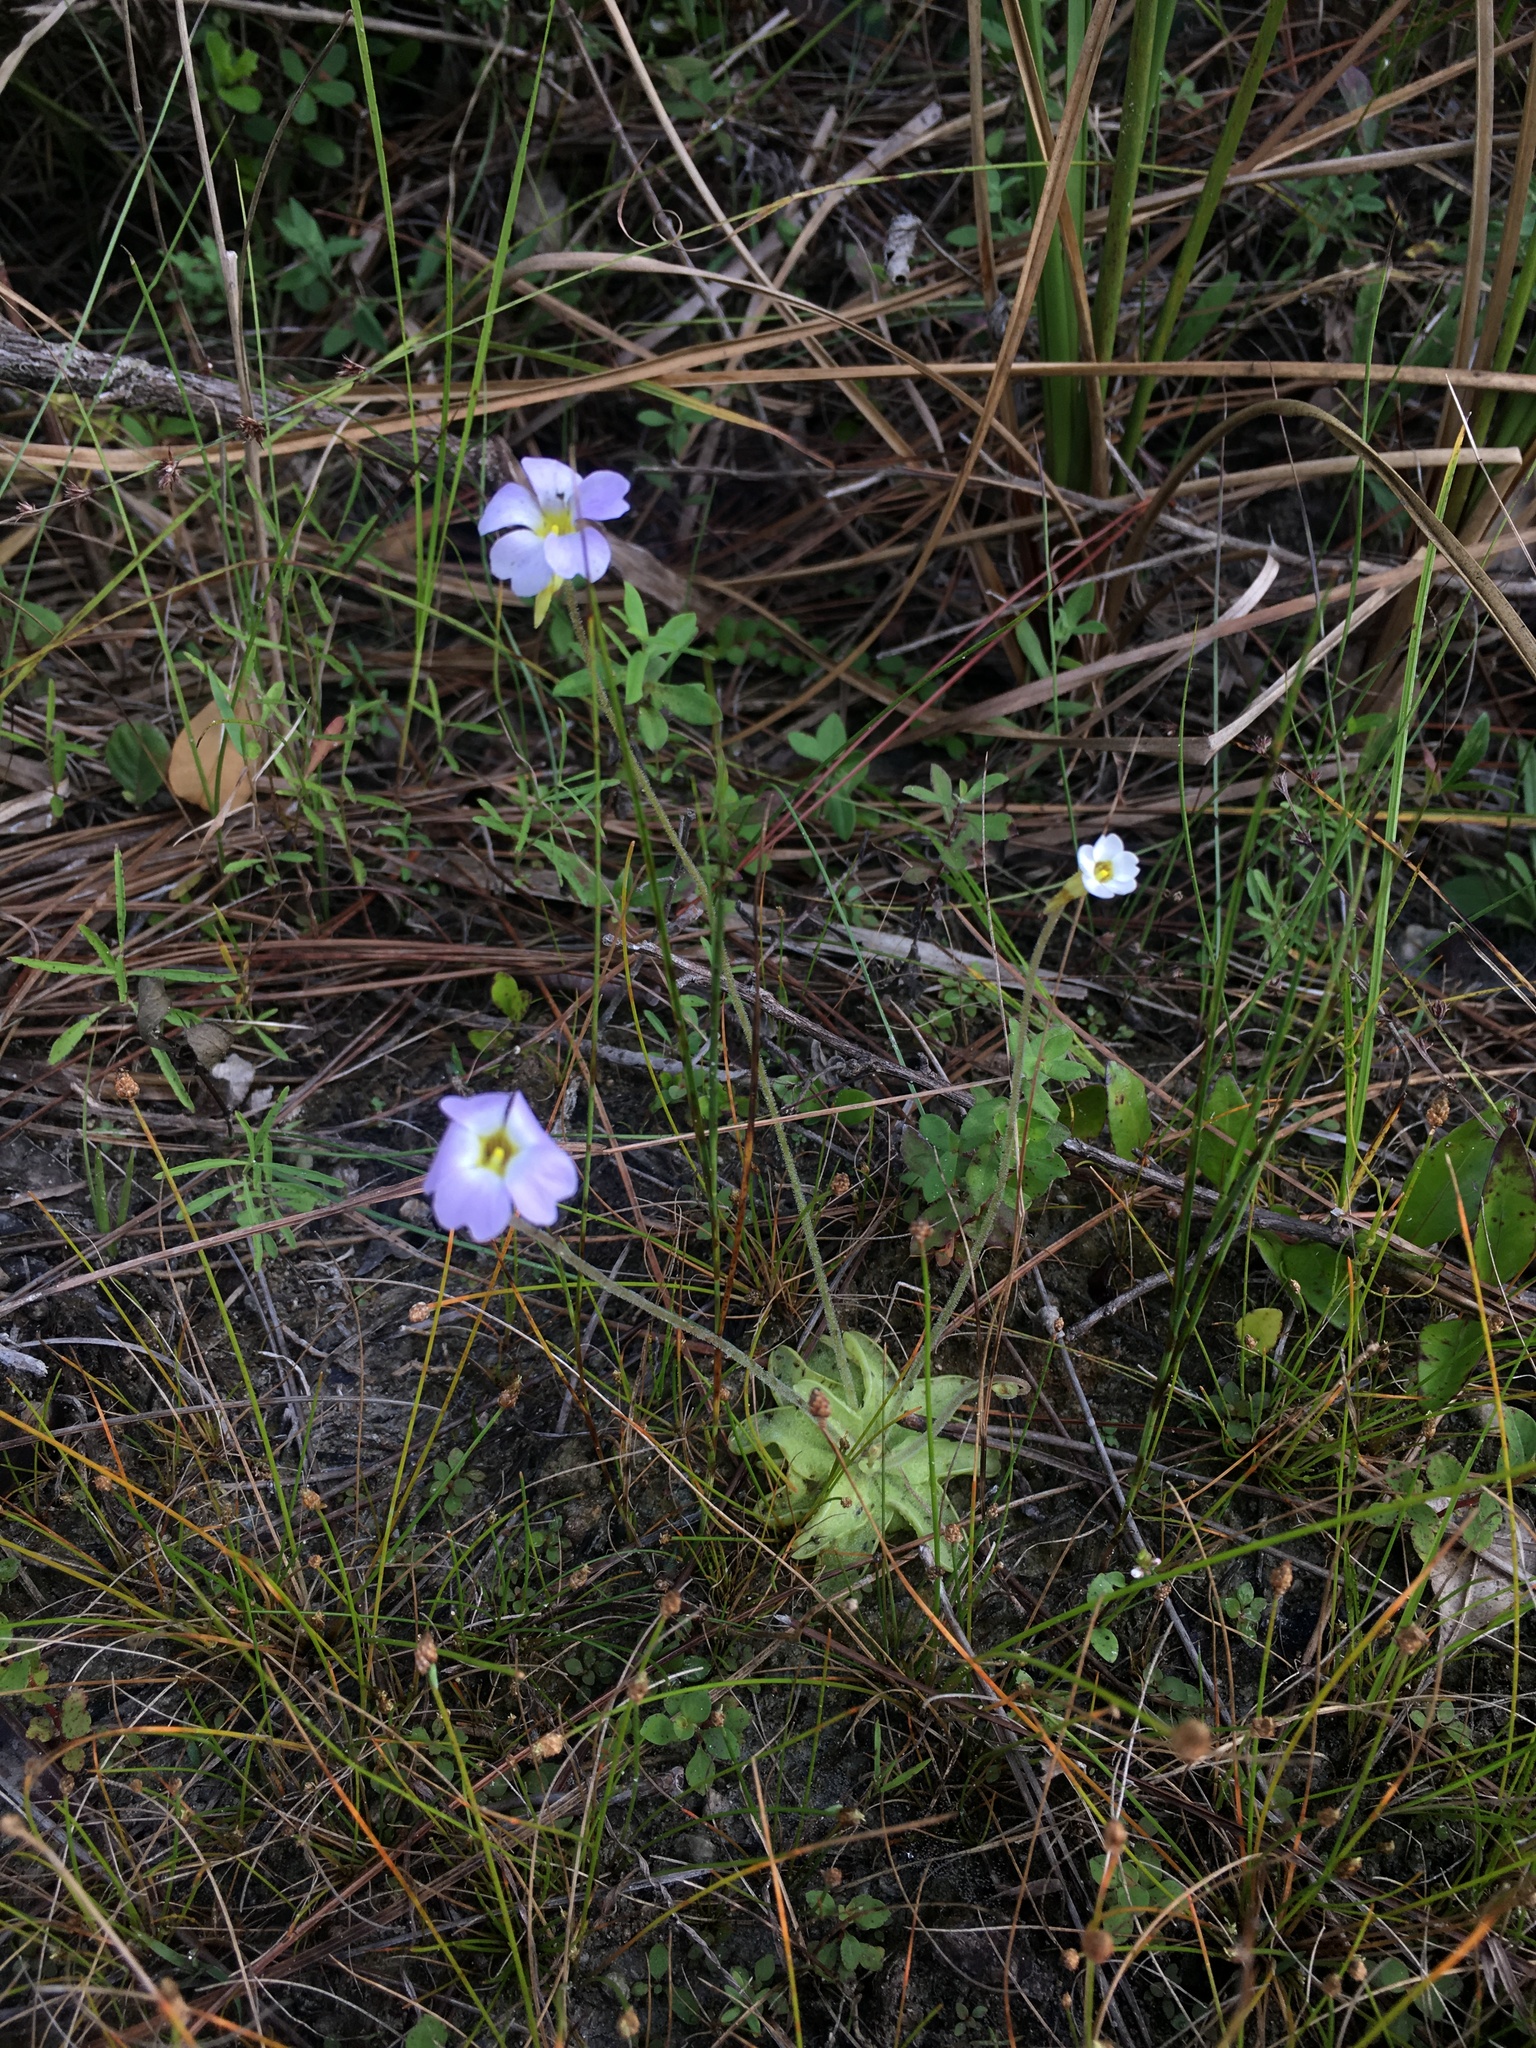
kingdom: Plantae
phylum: Tracheophyta
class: Magnoliopsida
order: Lamiales
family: Lentibulariaceae
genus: Pinguicula
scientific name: Pinguicula pumila
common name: Small butterwort
